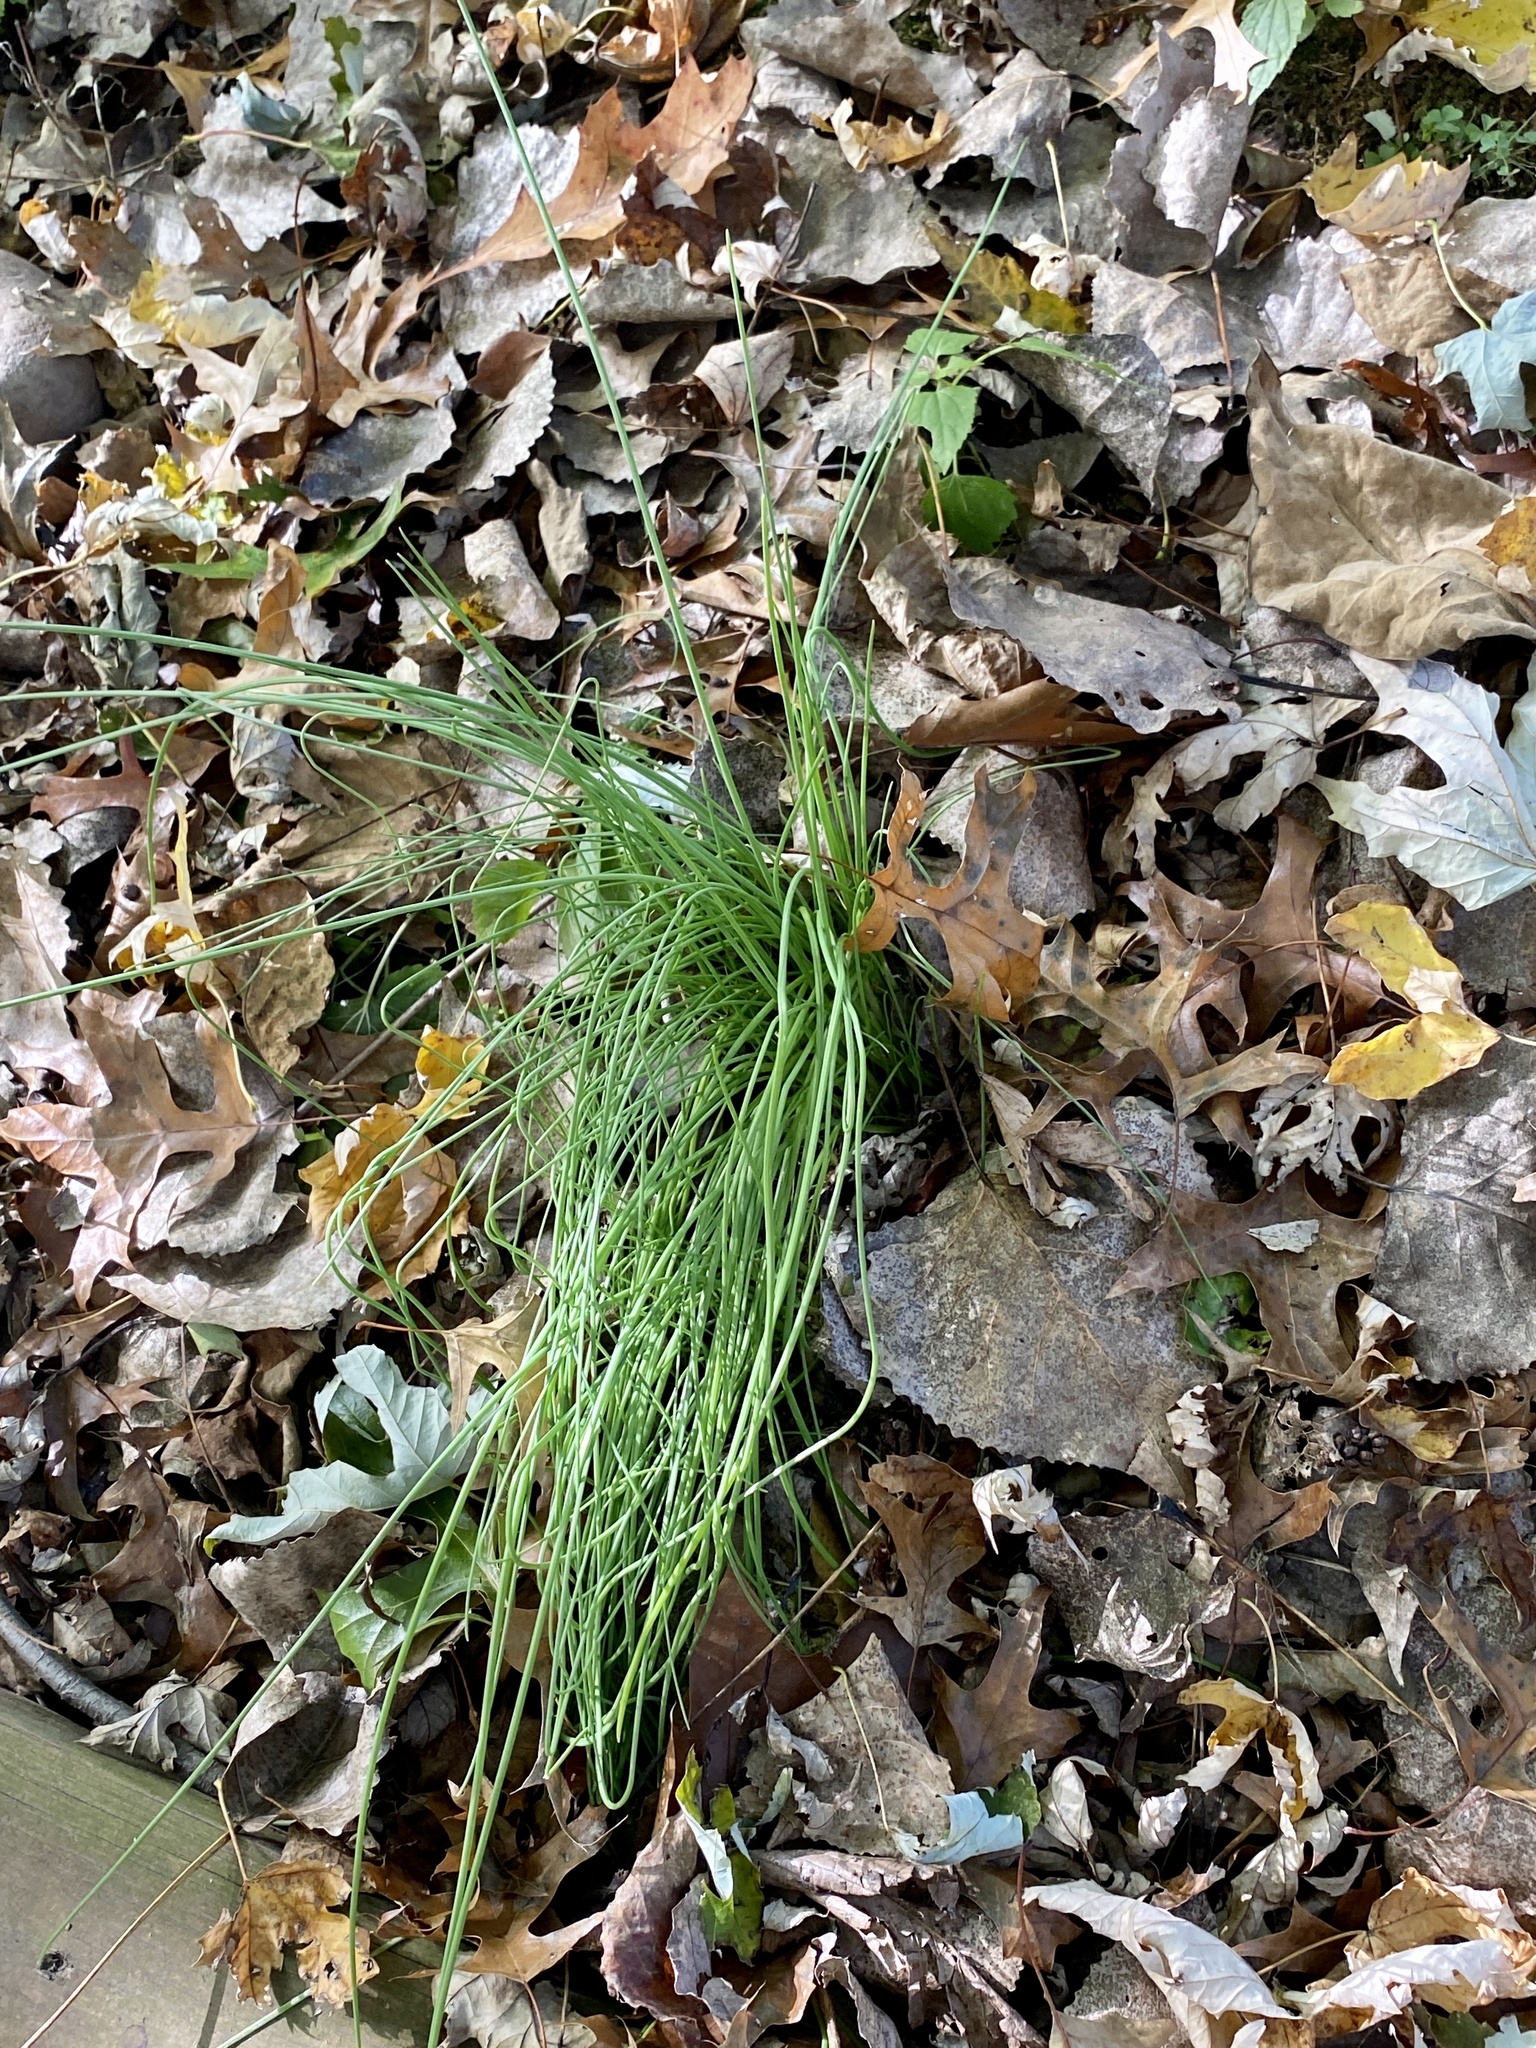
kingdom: Plantae
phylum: Tracheophyta
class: Liliopsida
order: Asparagales
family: Amaryllidaceae
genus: Allium
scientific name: Allium vineale
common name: Crow garlic
